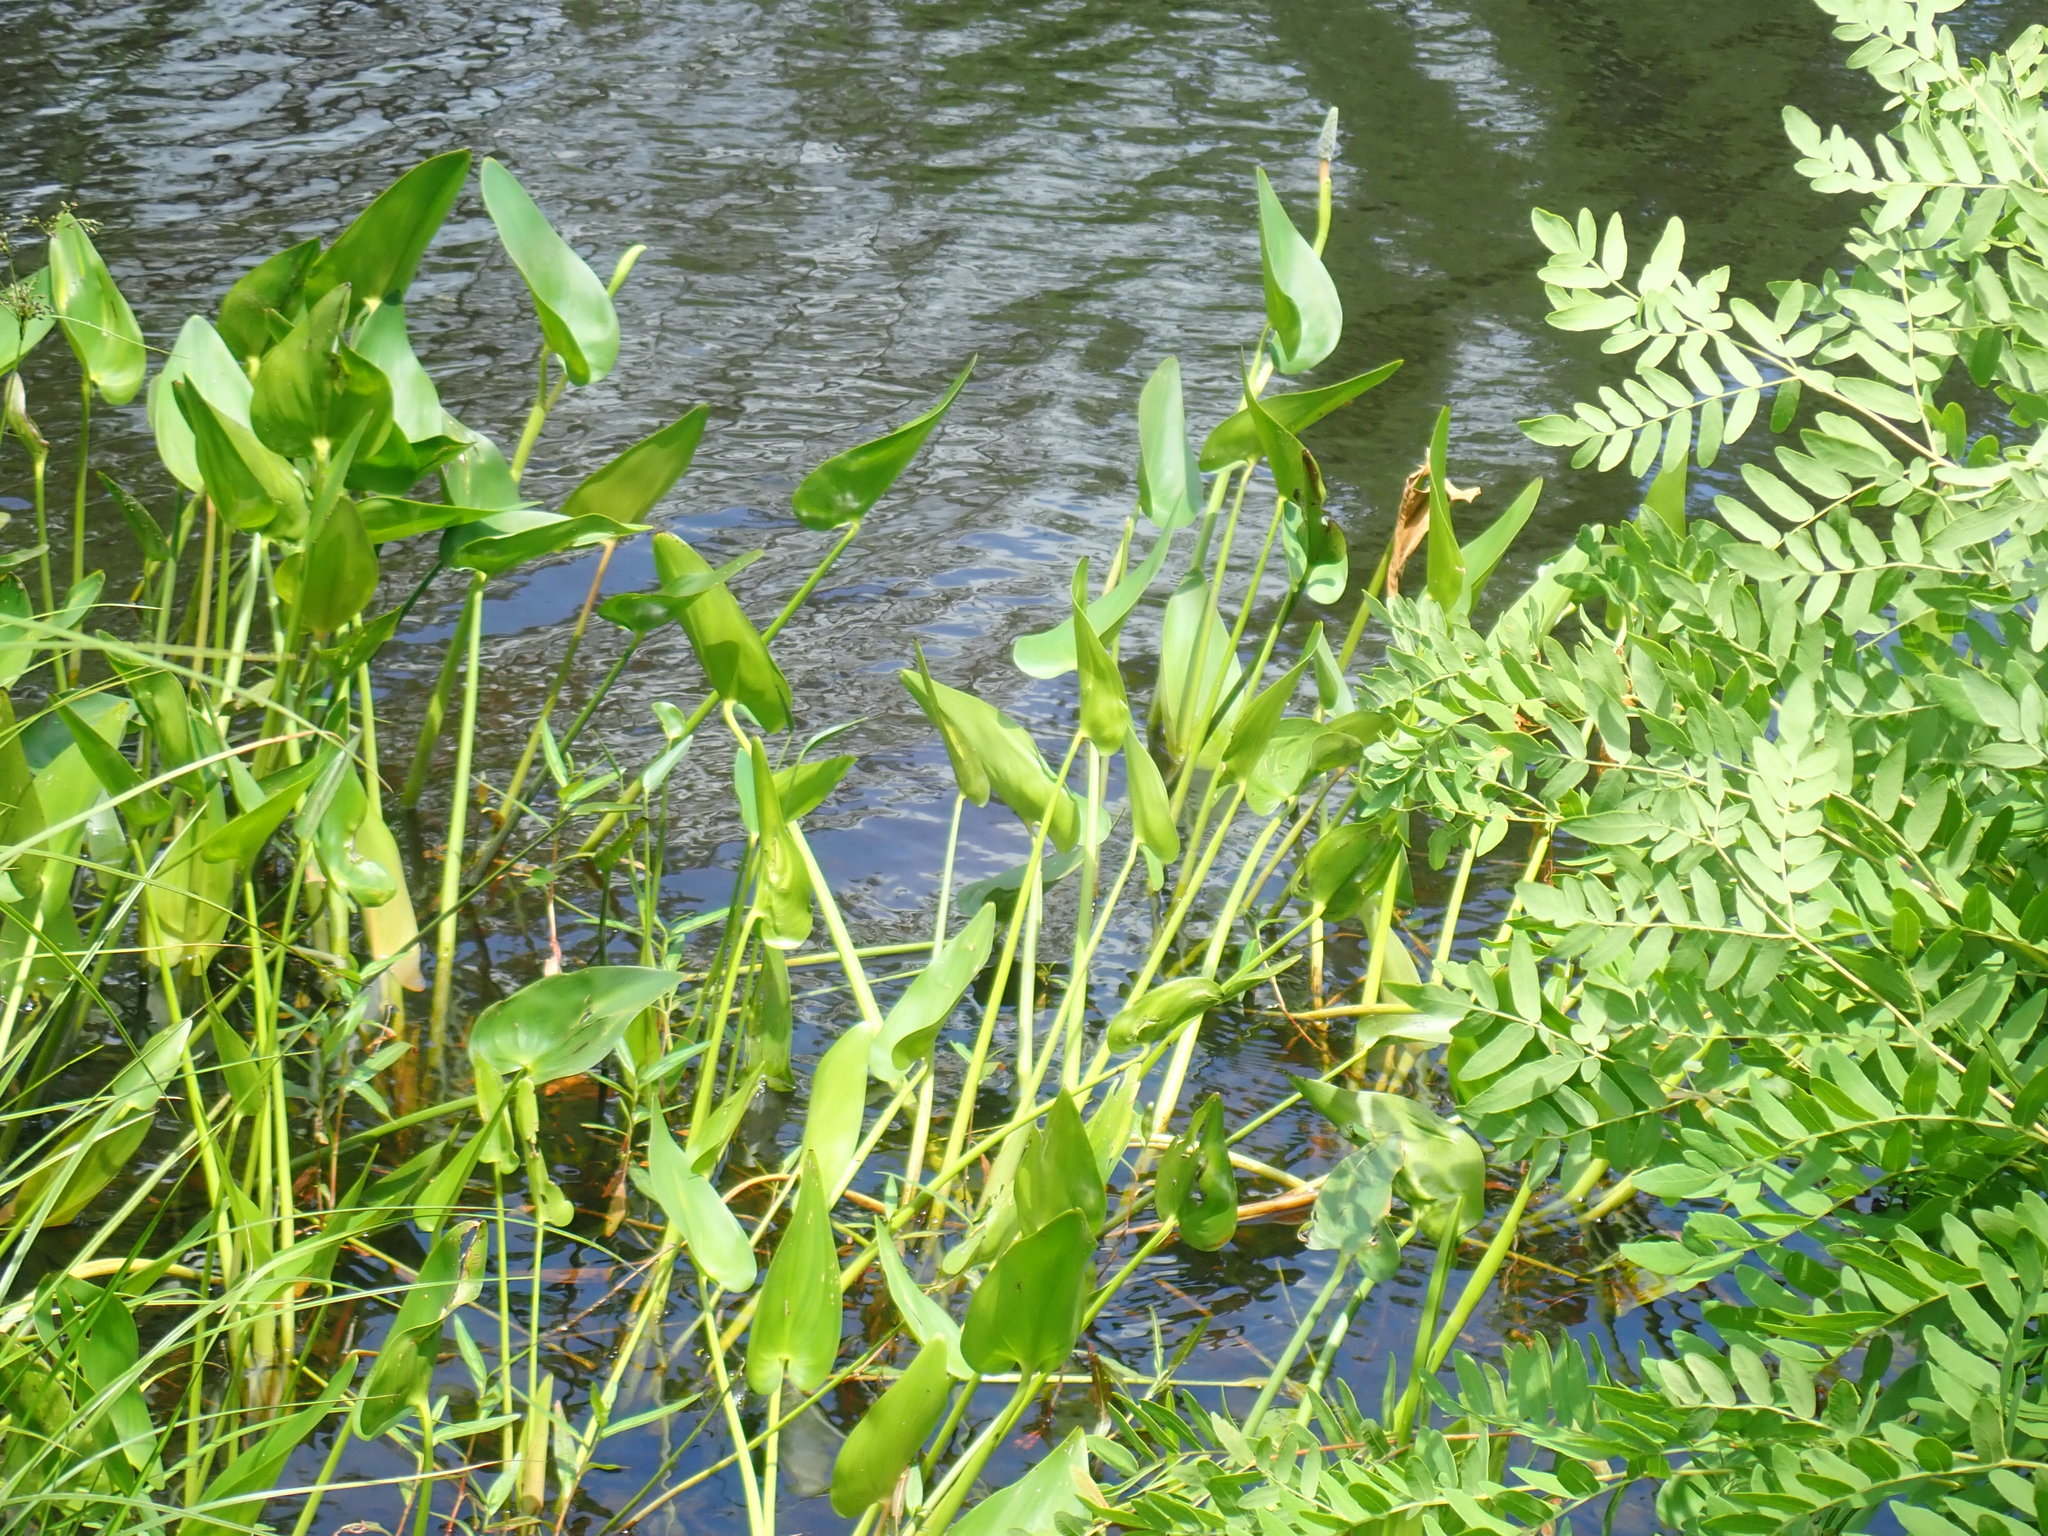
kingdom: Plantae
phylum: Tracheophyta
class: Liliopsida
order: Commelinales
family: Pontederiaceae
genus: Pontederia
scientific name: Pontederia cordata
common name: Pickerelweed
